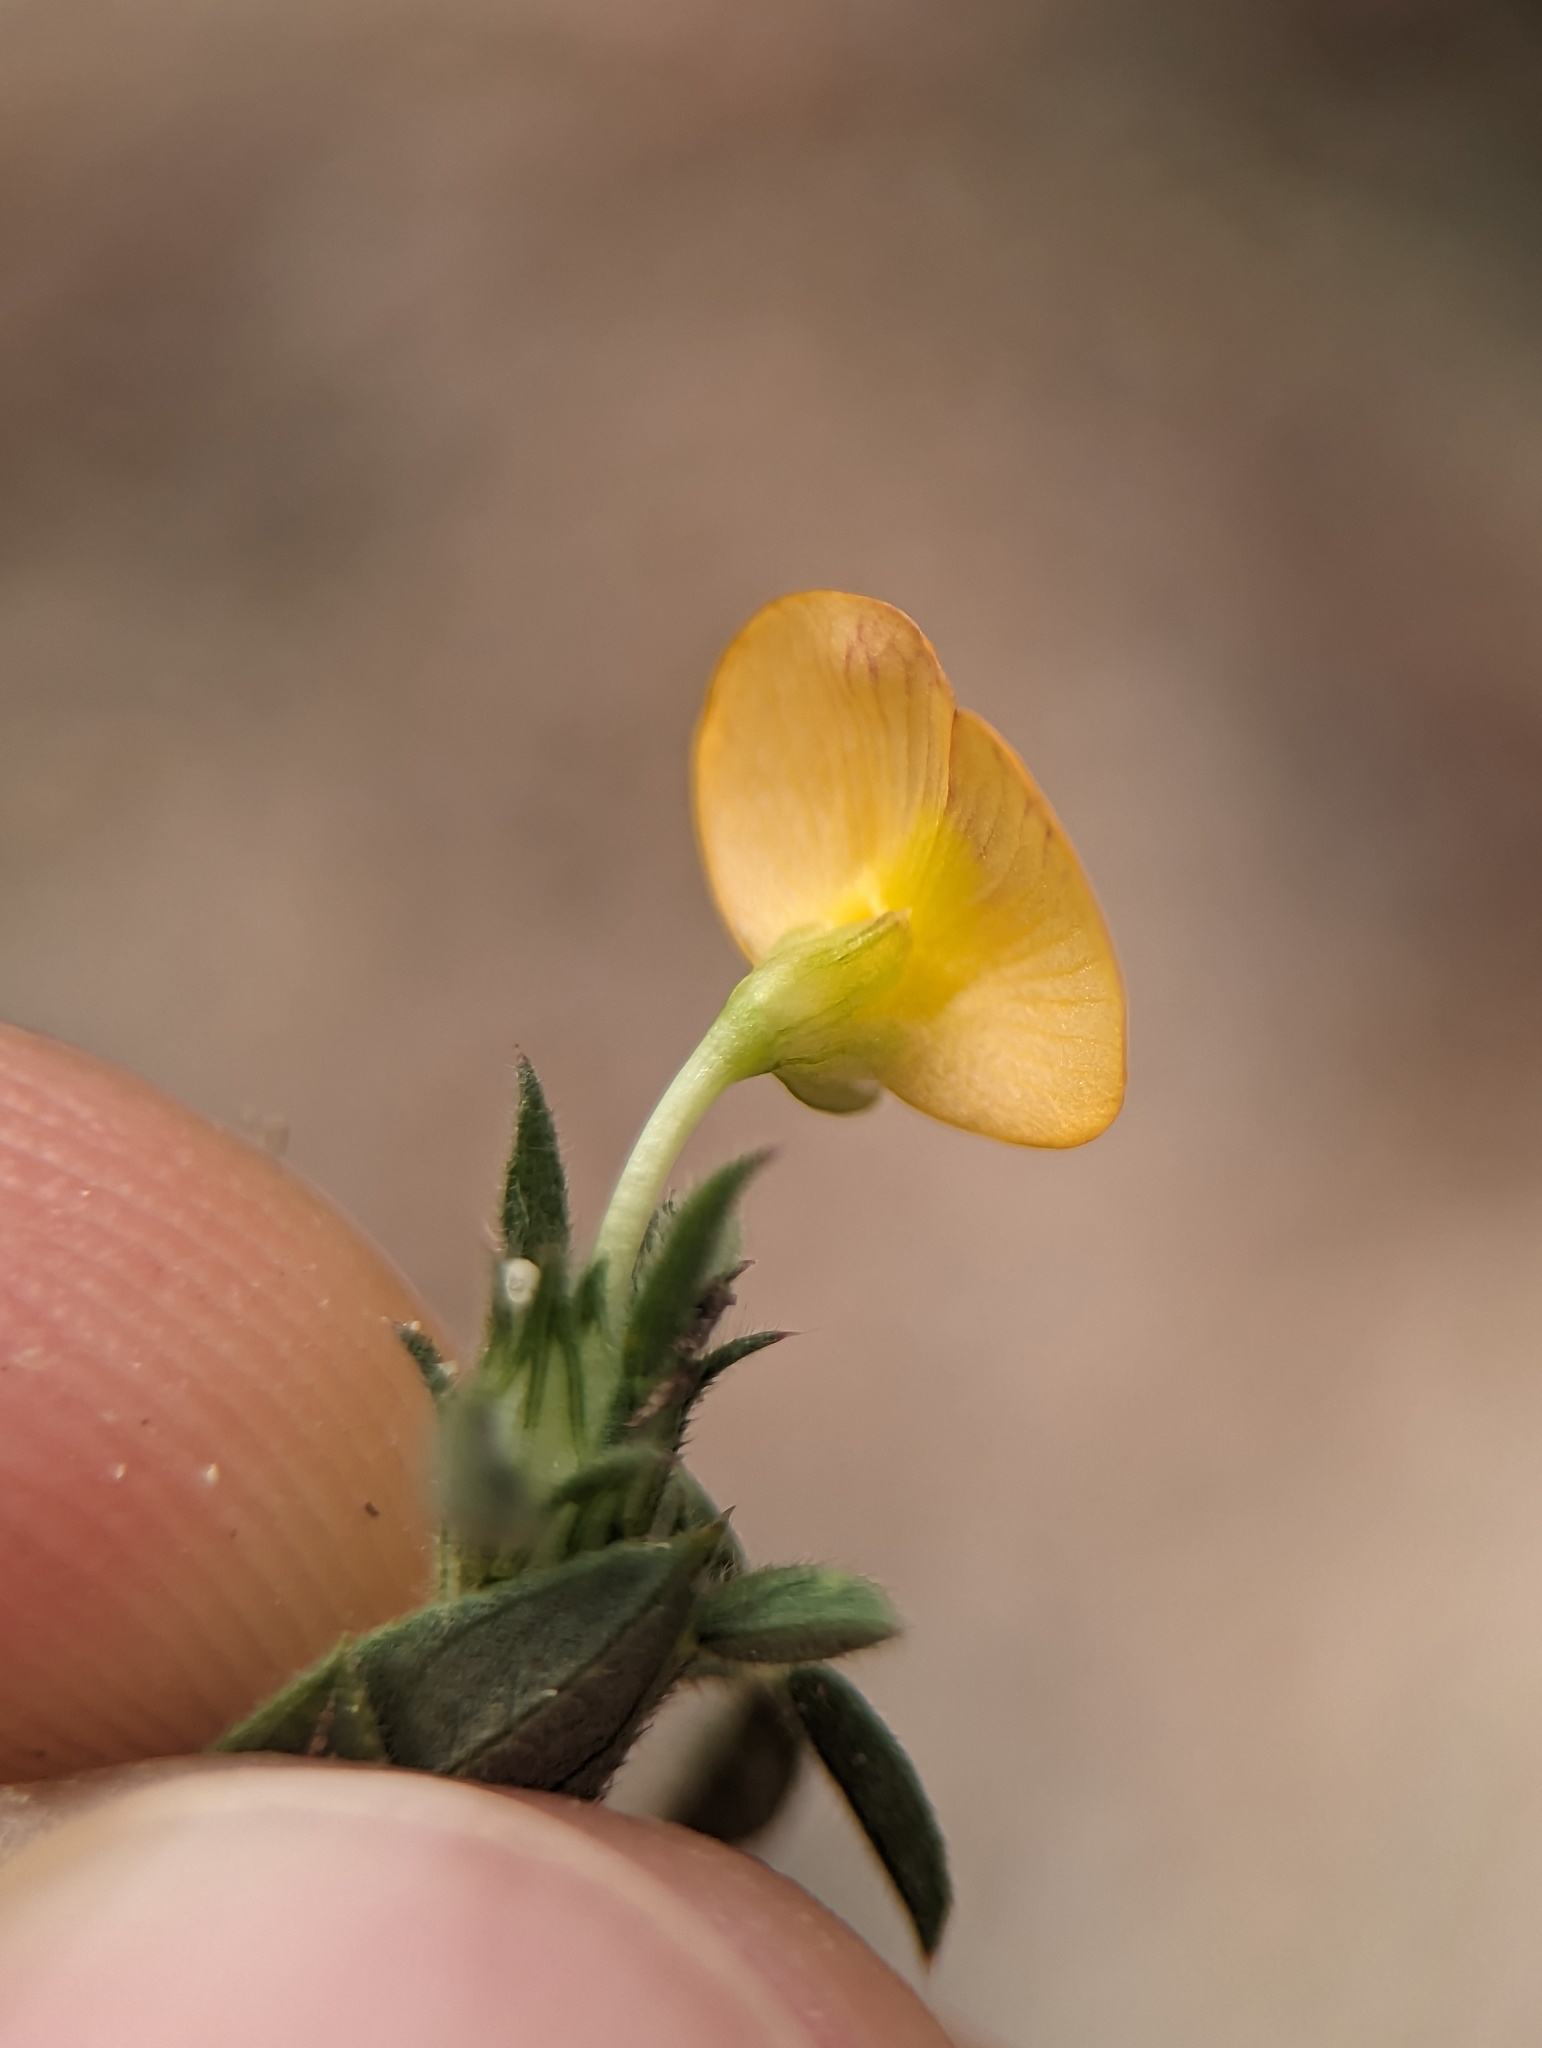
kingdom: Plantae
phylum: Tracheophyta
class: Magnoliopsida
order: Fabales
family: Fabaceae
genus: Stylosanthes
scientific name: Stylosanthes viscosa
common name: Viscid pencil-flower
